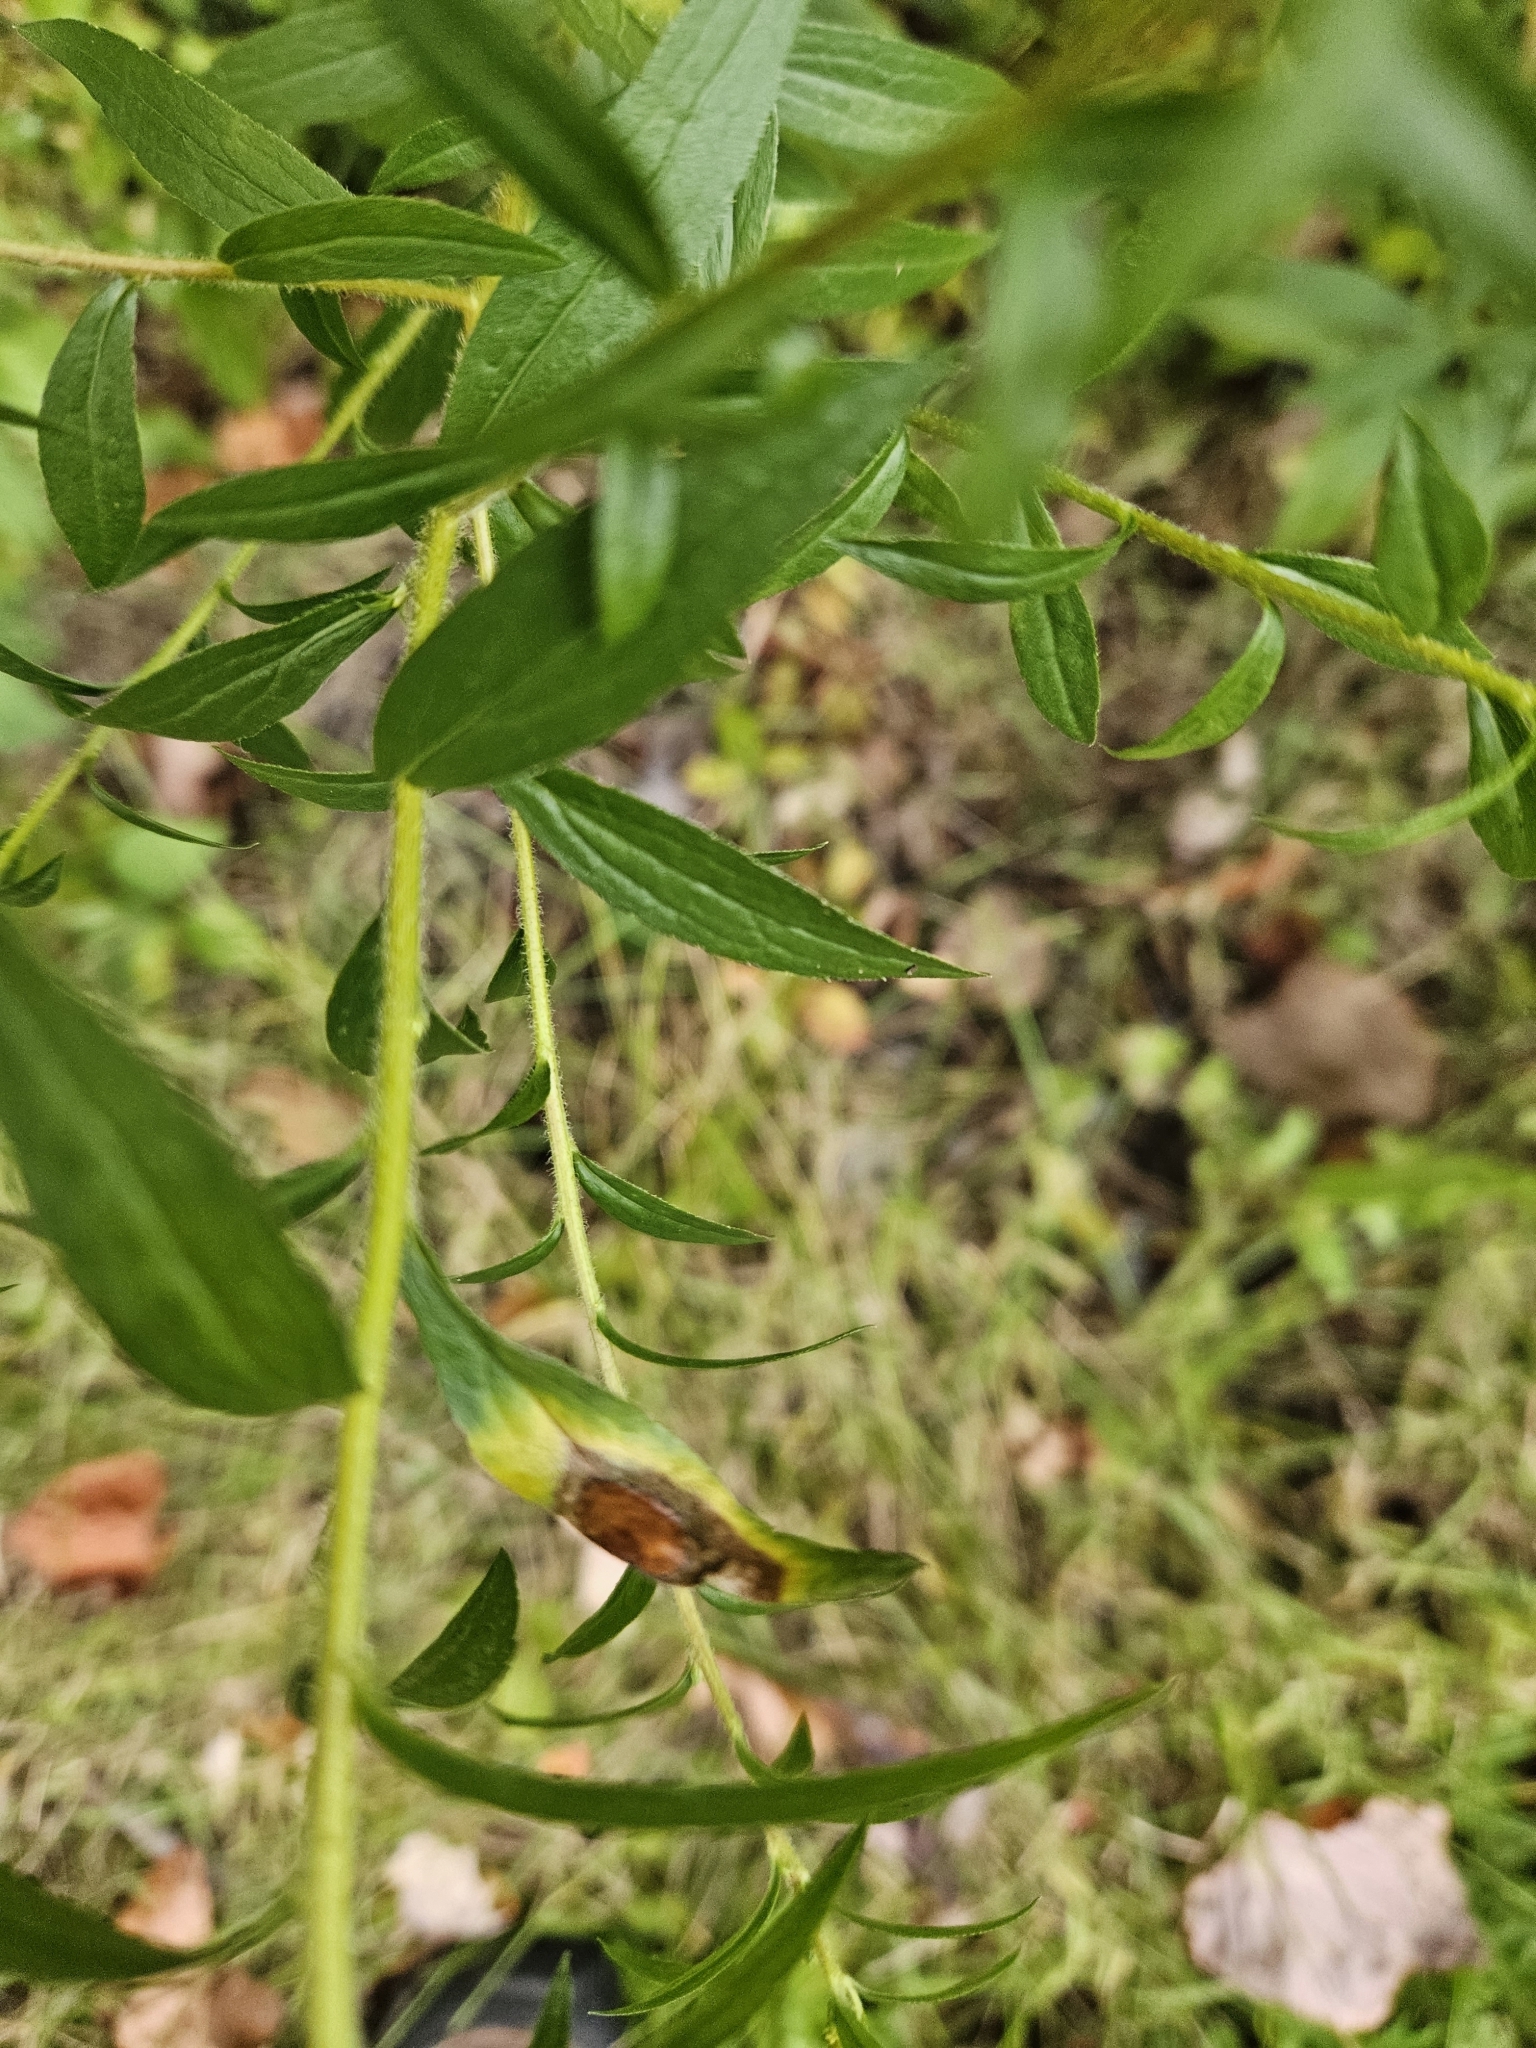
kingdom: Plantae
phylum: Tracheophyta
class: Magnoliopsida
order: Asterales
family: Asteraceae
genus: Solidago
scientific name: Solidago rugosa
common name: Rough-stemmed goldenrod
